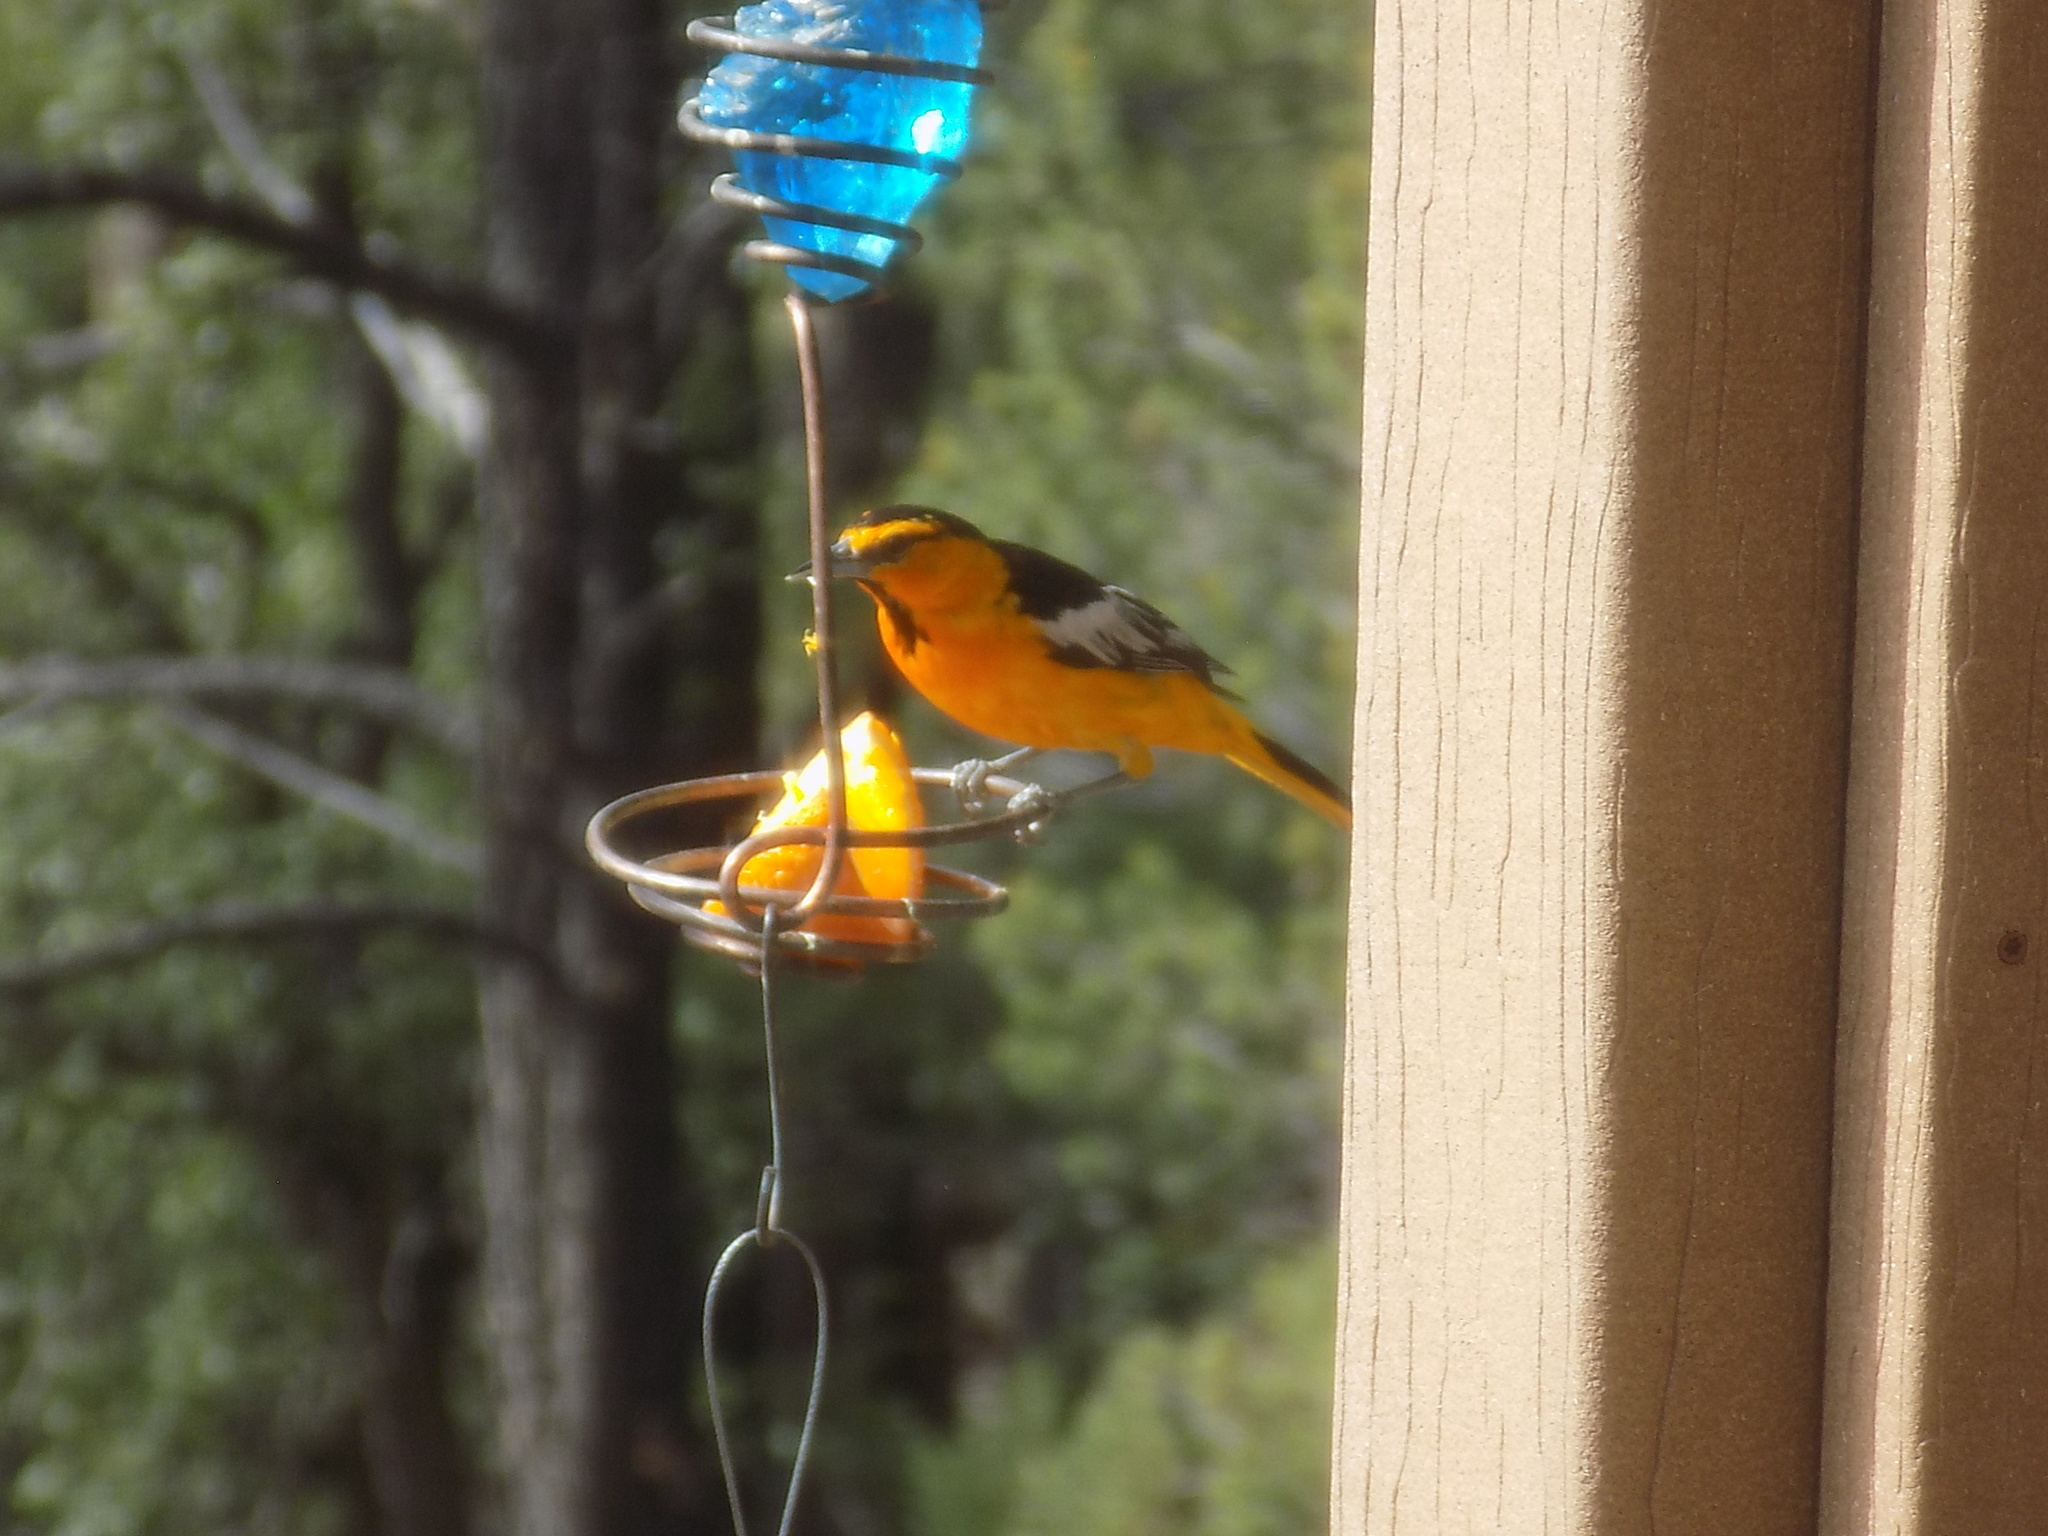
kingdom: Animalia
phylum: Chordata
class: Aves
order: Passeriformes
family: Icteridae
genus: Icterus
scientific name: Icterus bullockii
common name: Bullock's oriole
